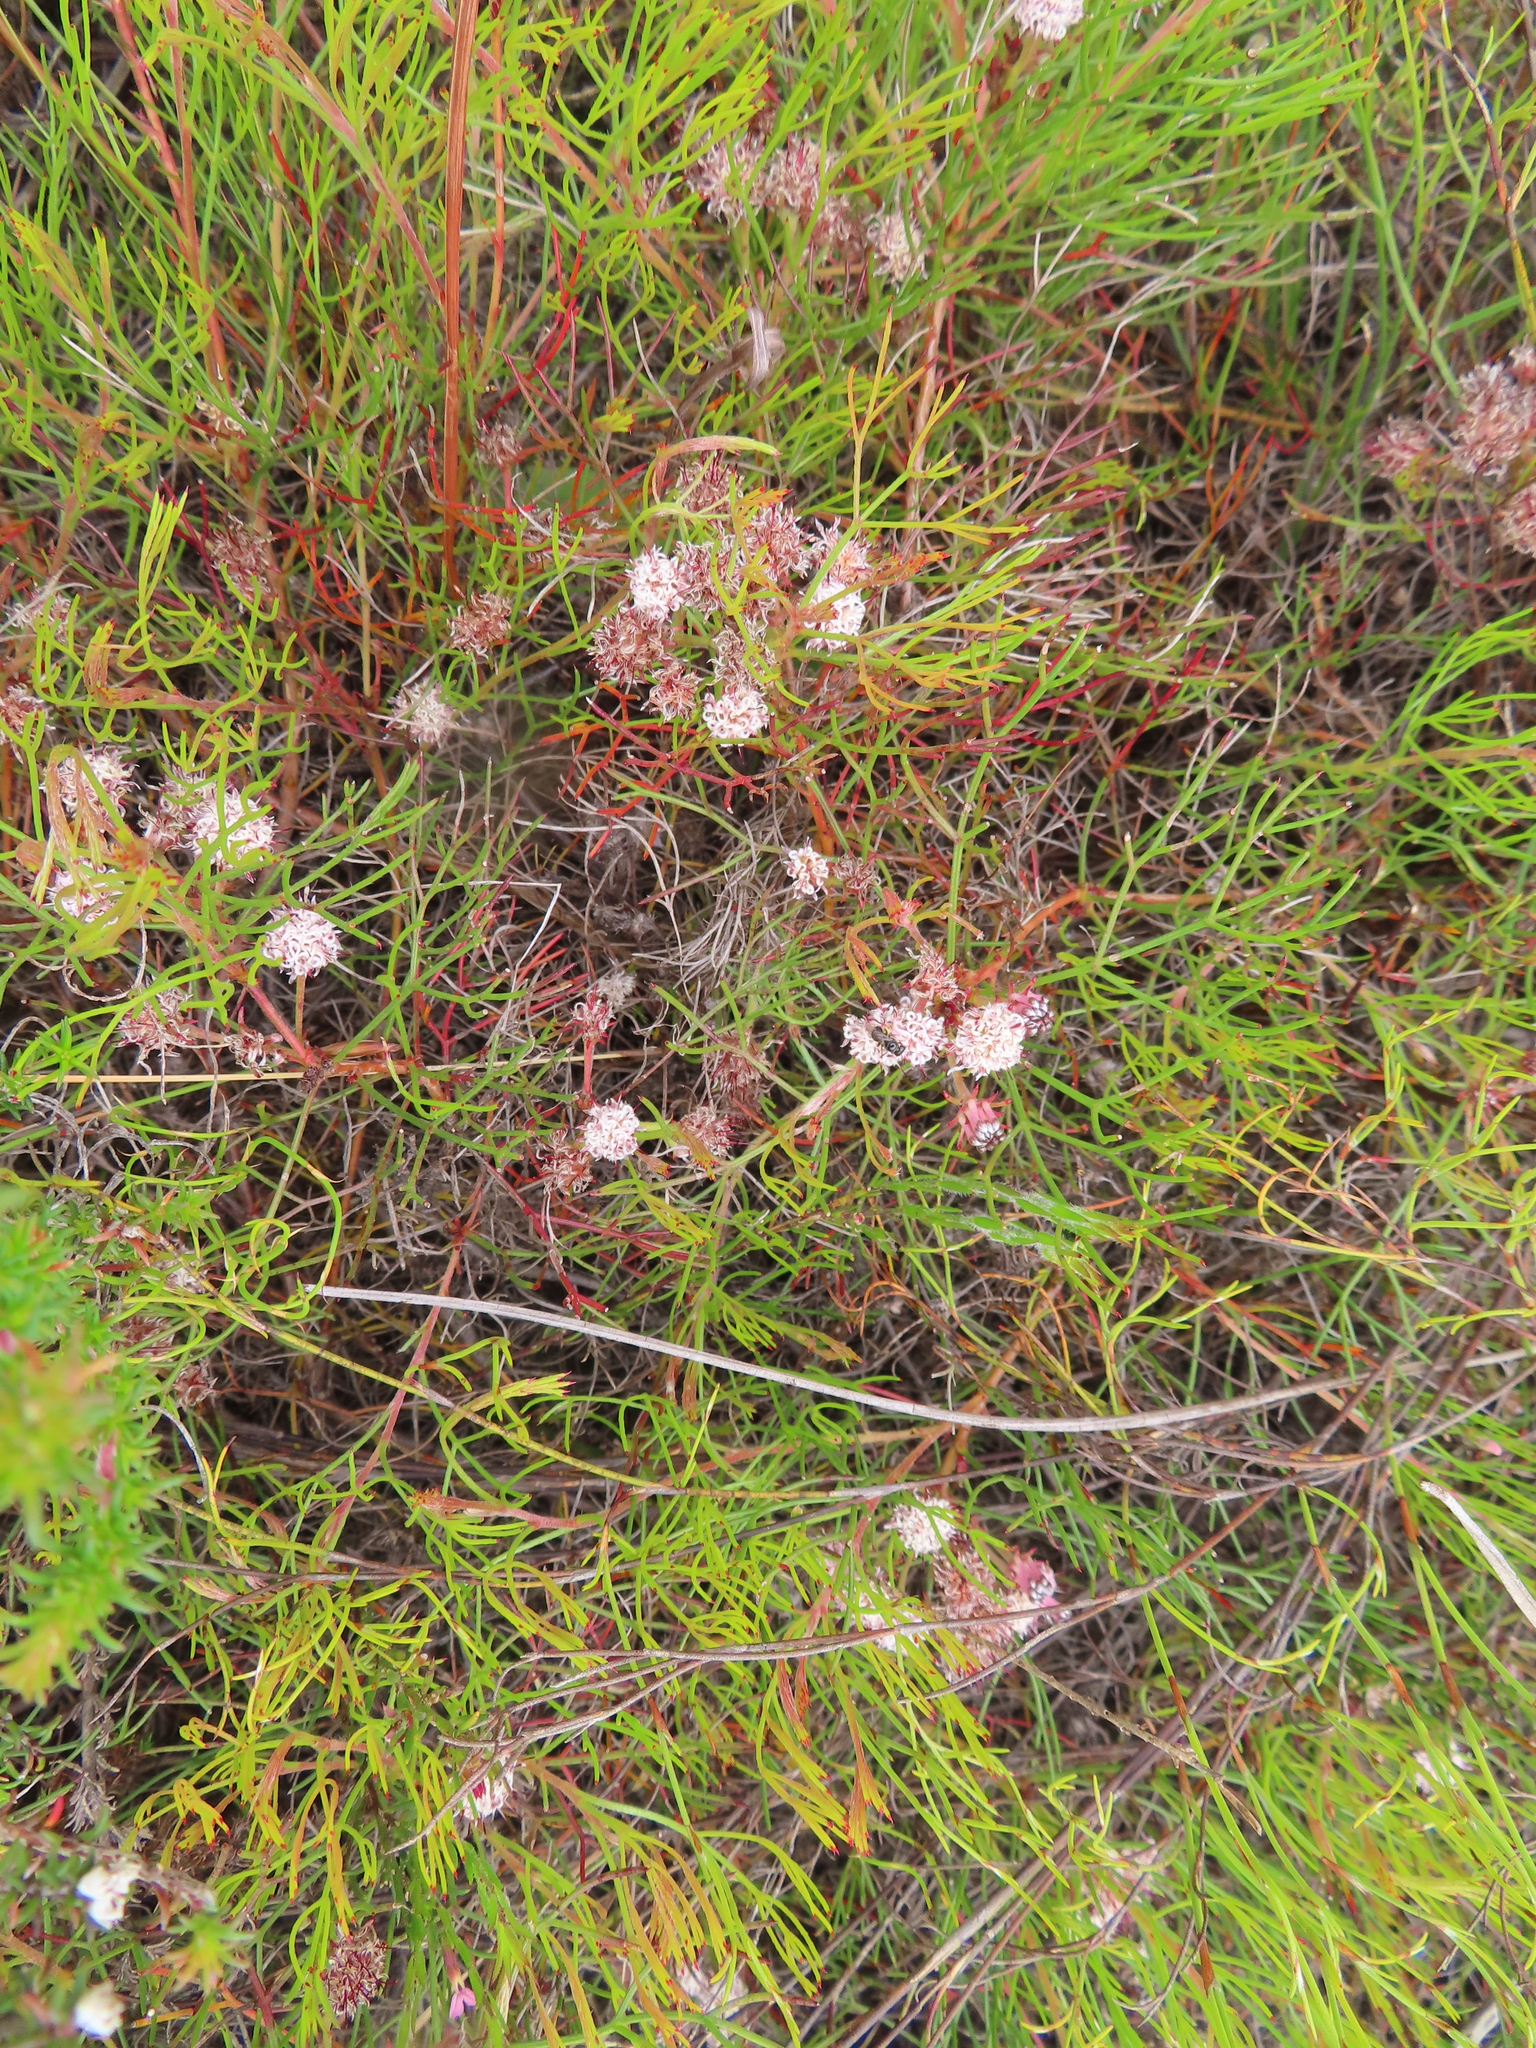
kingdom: Plantae
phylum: Tracheophyta
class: Magnoliopsida
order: Proteales
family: Proteaceae
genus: Serruria
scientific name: Serruria fasciflora
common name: Common pin spiderhead
